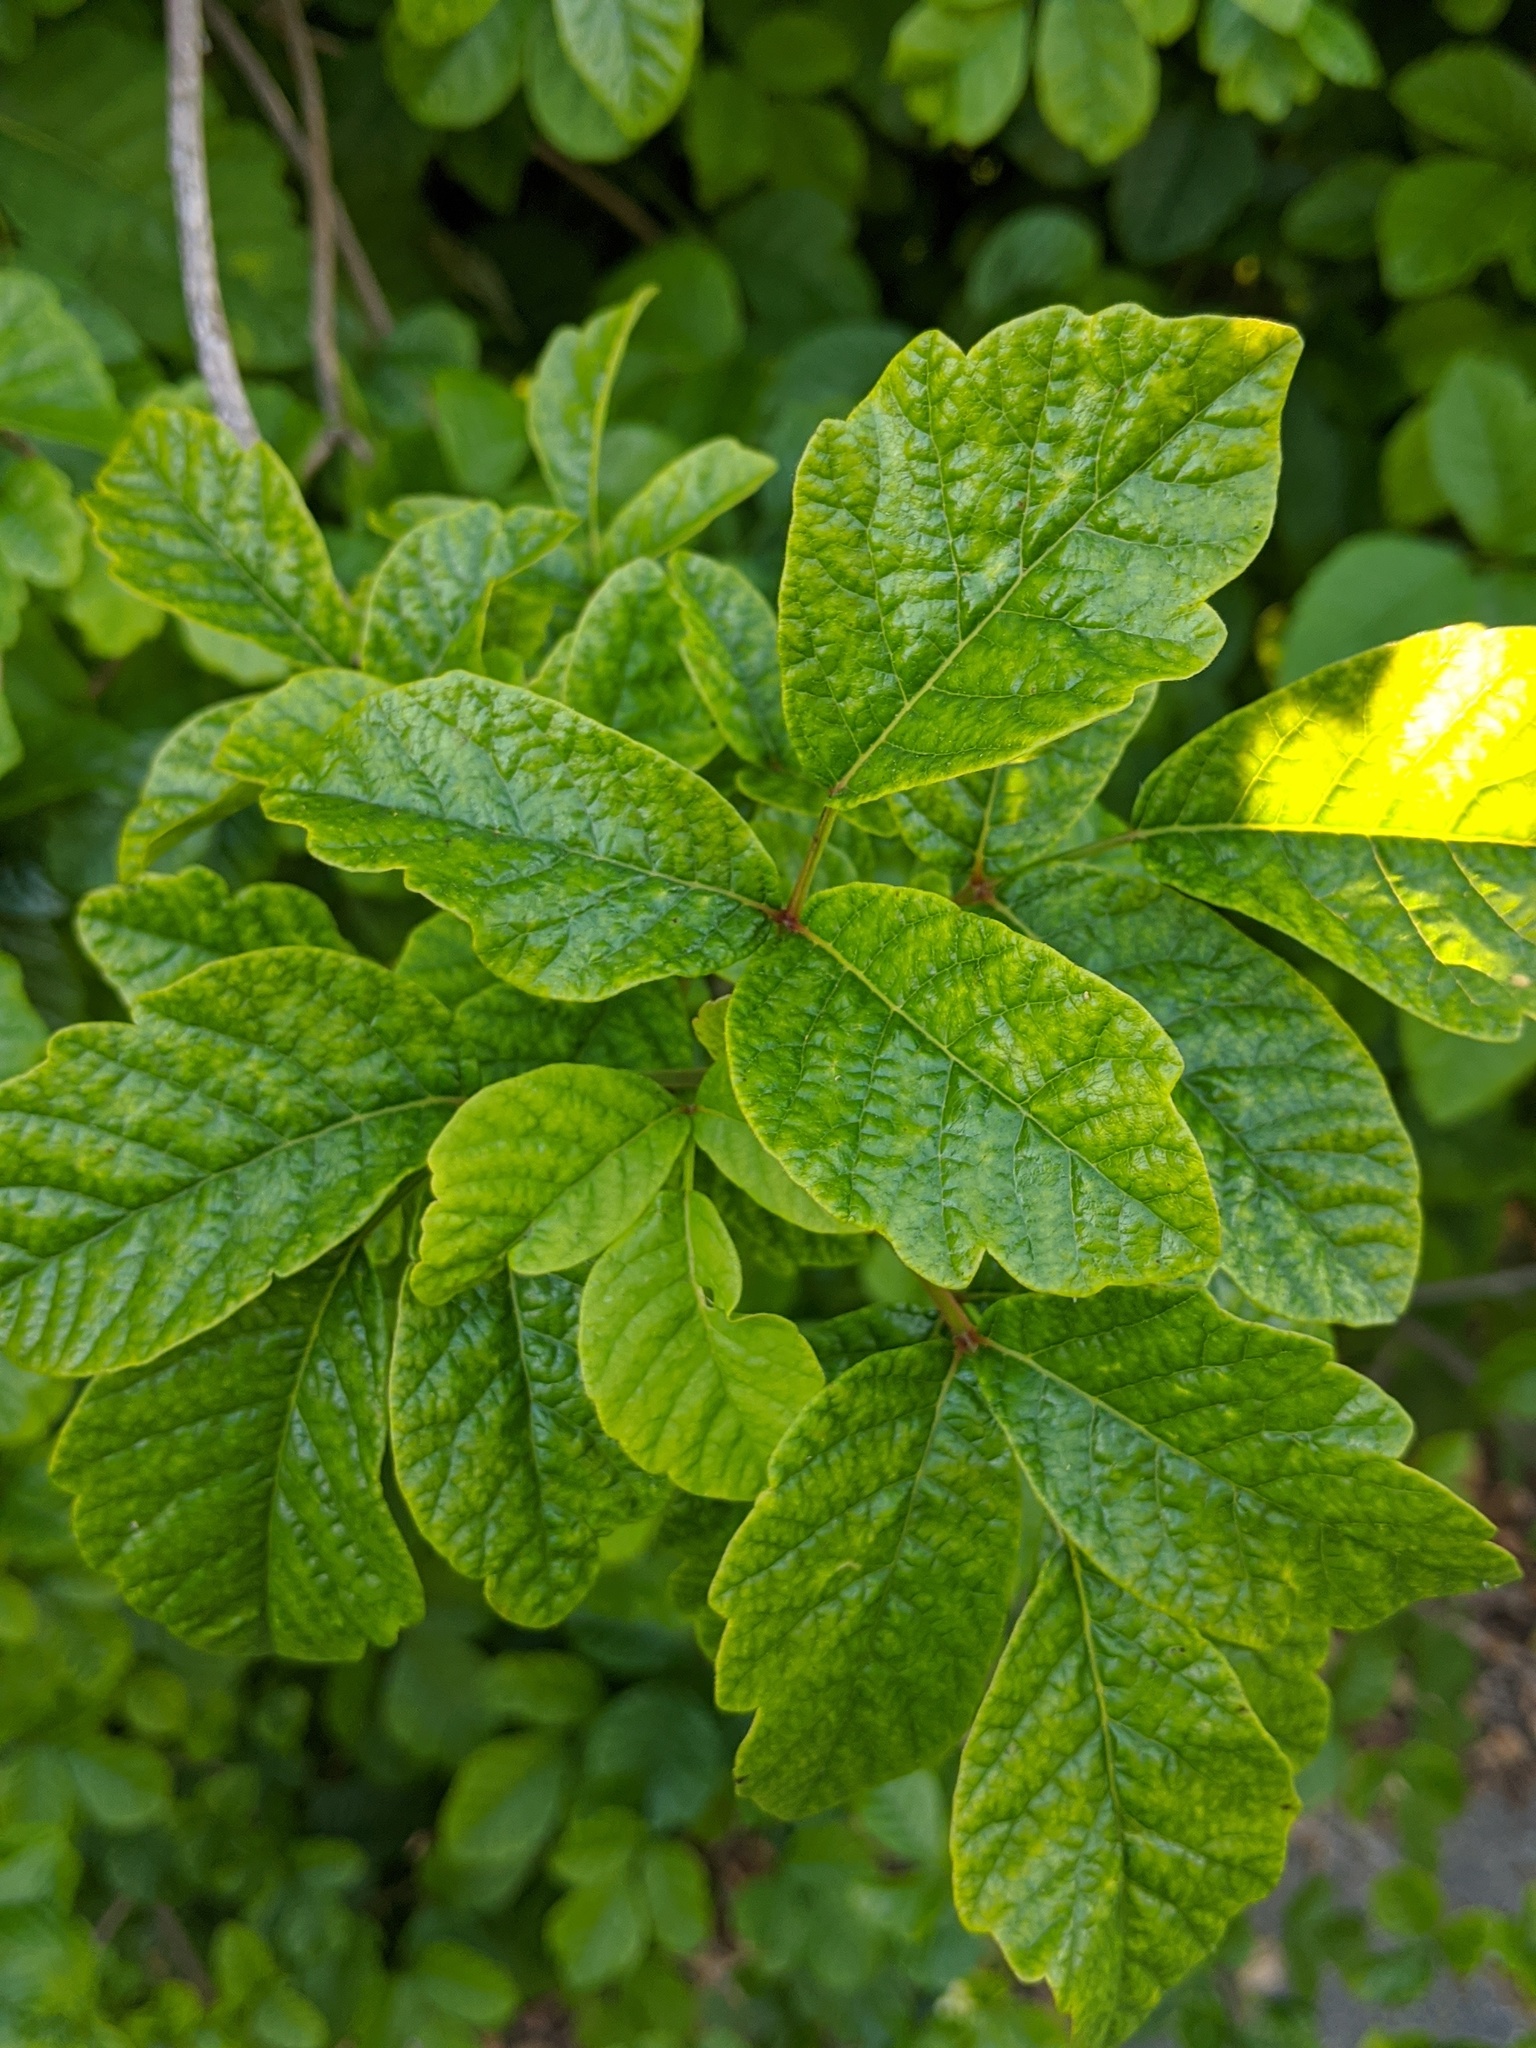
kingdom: Plantae
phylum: Tracheophyta
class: Magnoliopsida
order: Sapindales
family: Anacardiaceae
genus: Toxicodendron
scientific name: Toxicodendron diversilobum
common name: Pacific poison-oak
